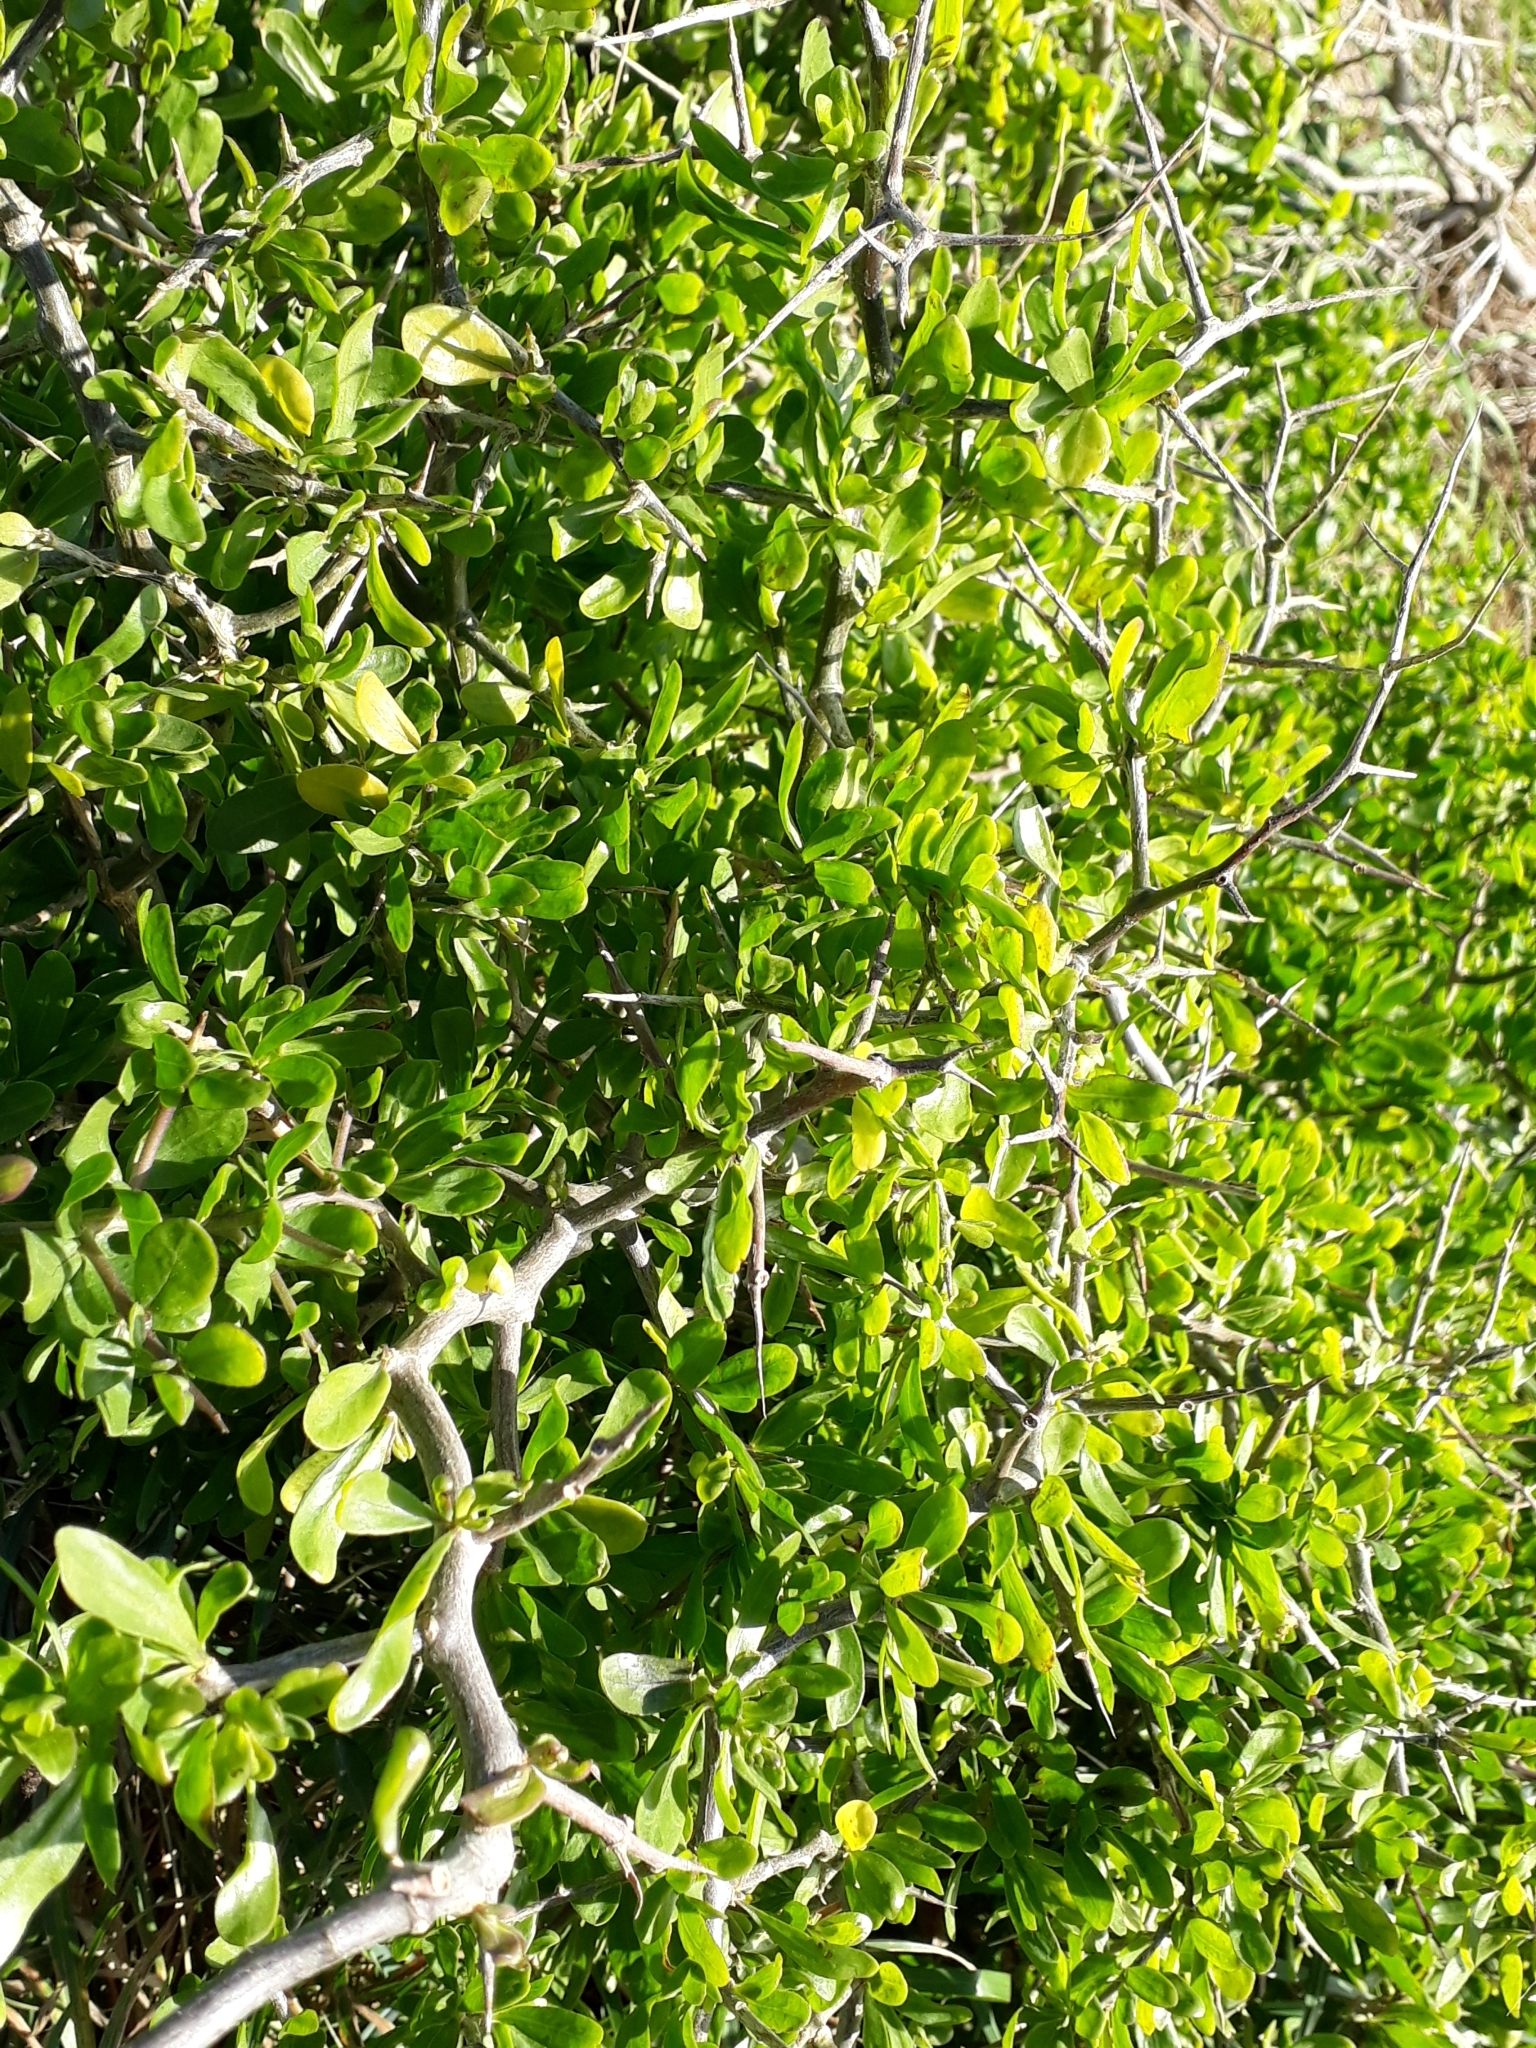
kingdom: Plantae
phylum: Tracheophyta
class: Magnoliopsida
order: Solanales
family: Solanaceae
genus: Lycium
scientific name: Lycium ferocissimum
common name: African boxthorn
